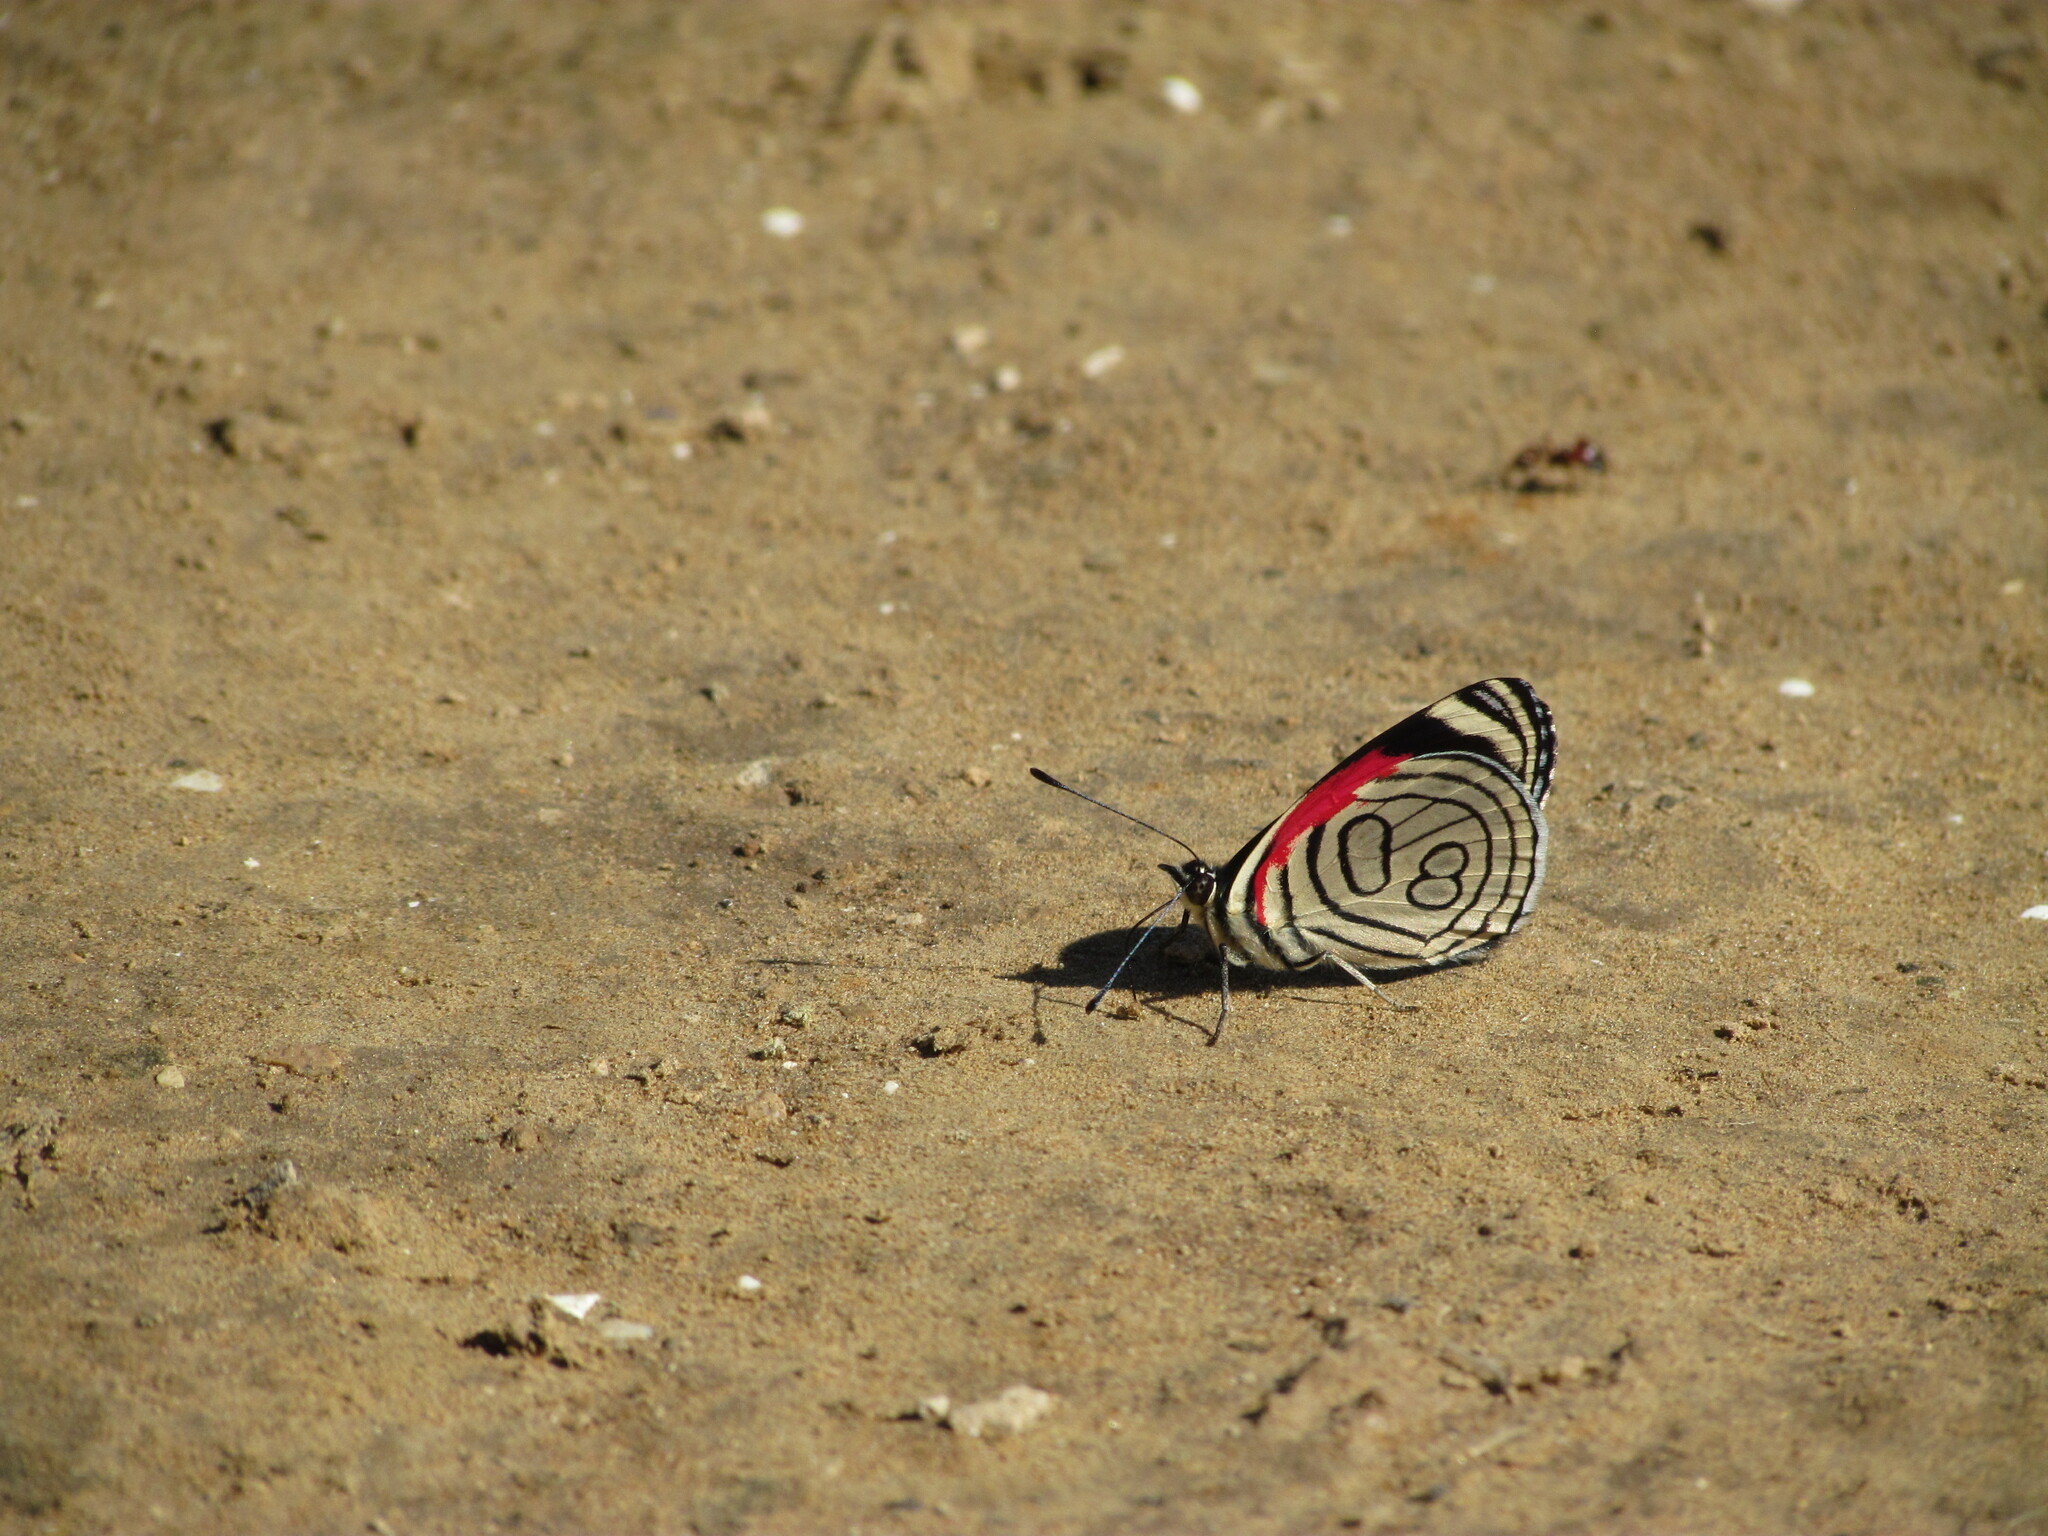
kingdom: Animalia
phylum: Arthropoda
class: Insecta
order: Lepidoptera
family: Nymphalidae
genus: Diaethria
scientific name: Diaethria candrena
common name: Number eighty
